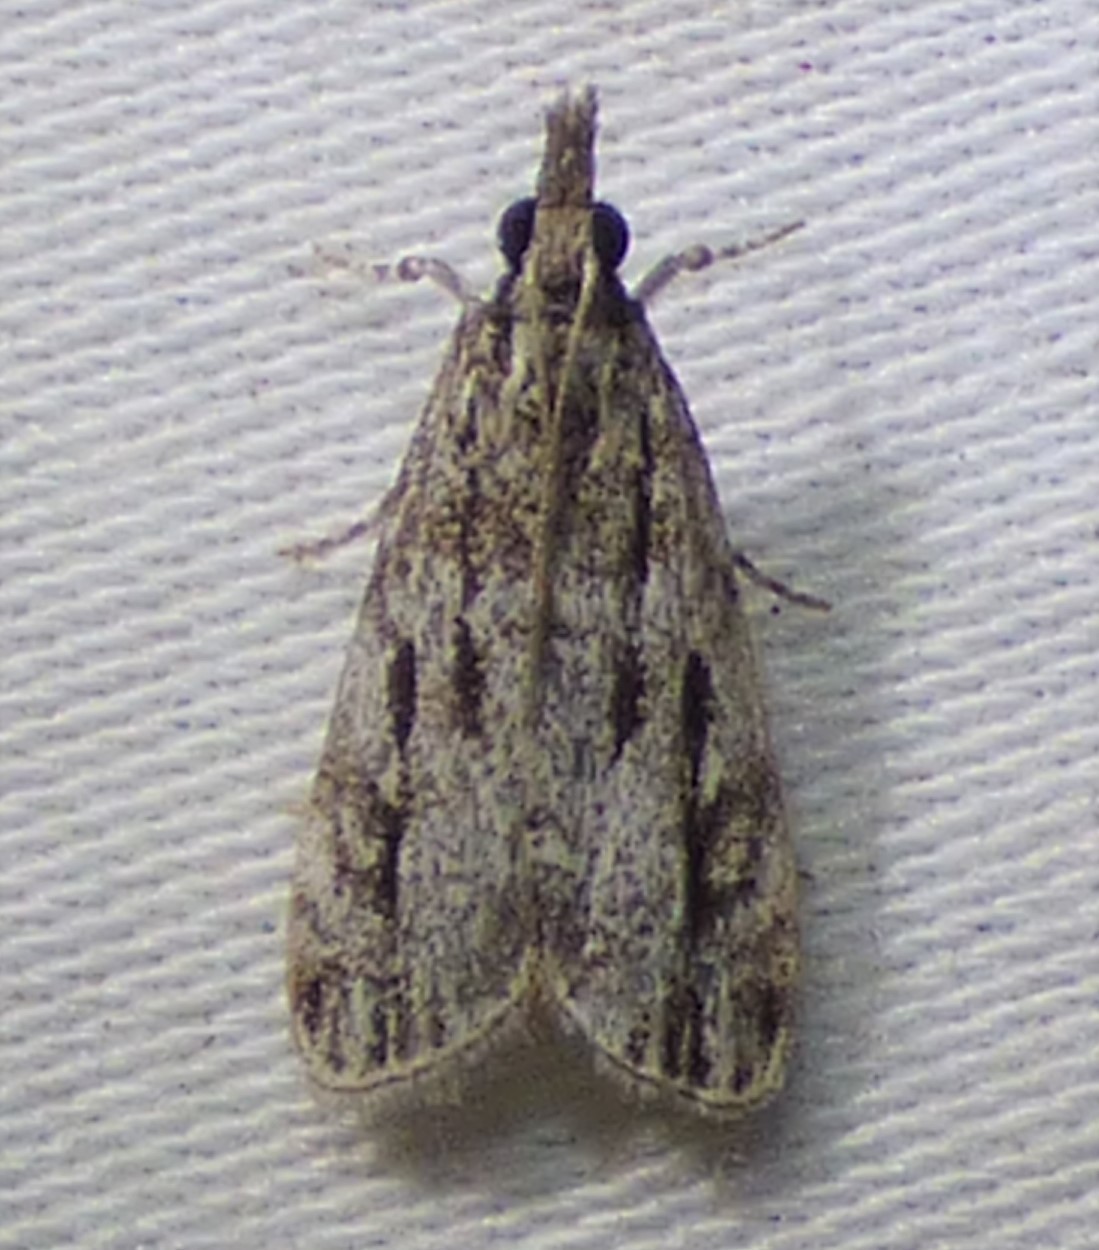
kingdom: Animalia
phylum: Arthropoda
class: Insecta
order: Lepidoptera
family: Crambidae
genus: Eudonia
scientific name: Eudonia strigalis
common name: Striped eudonia moth
